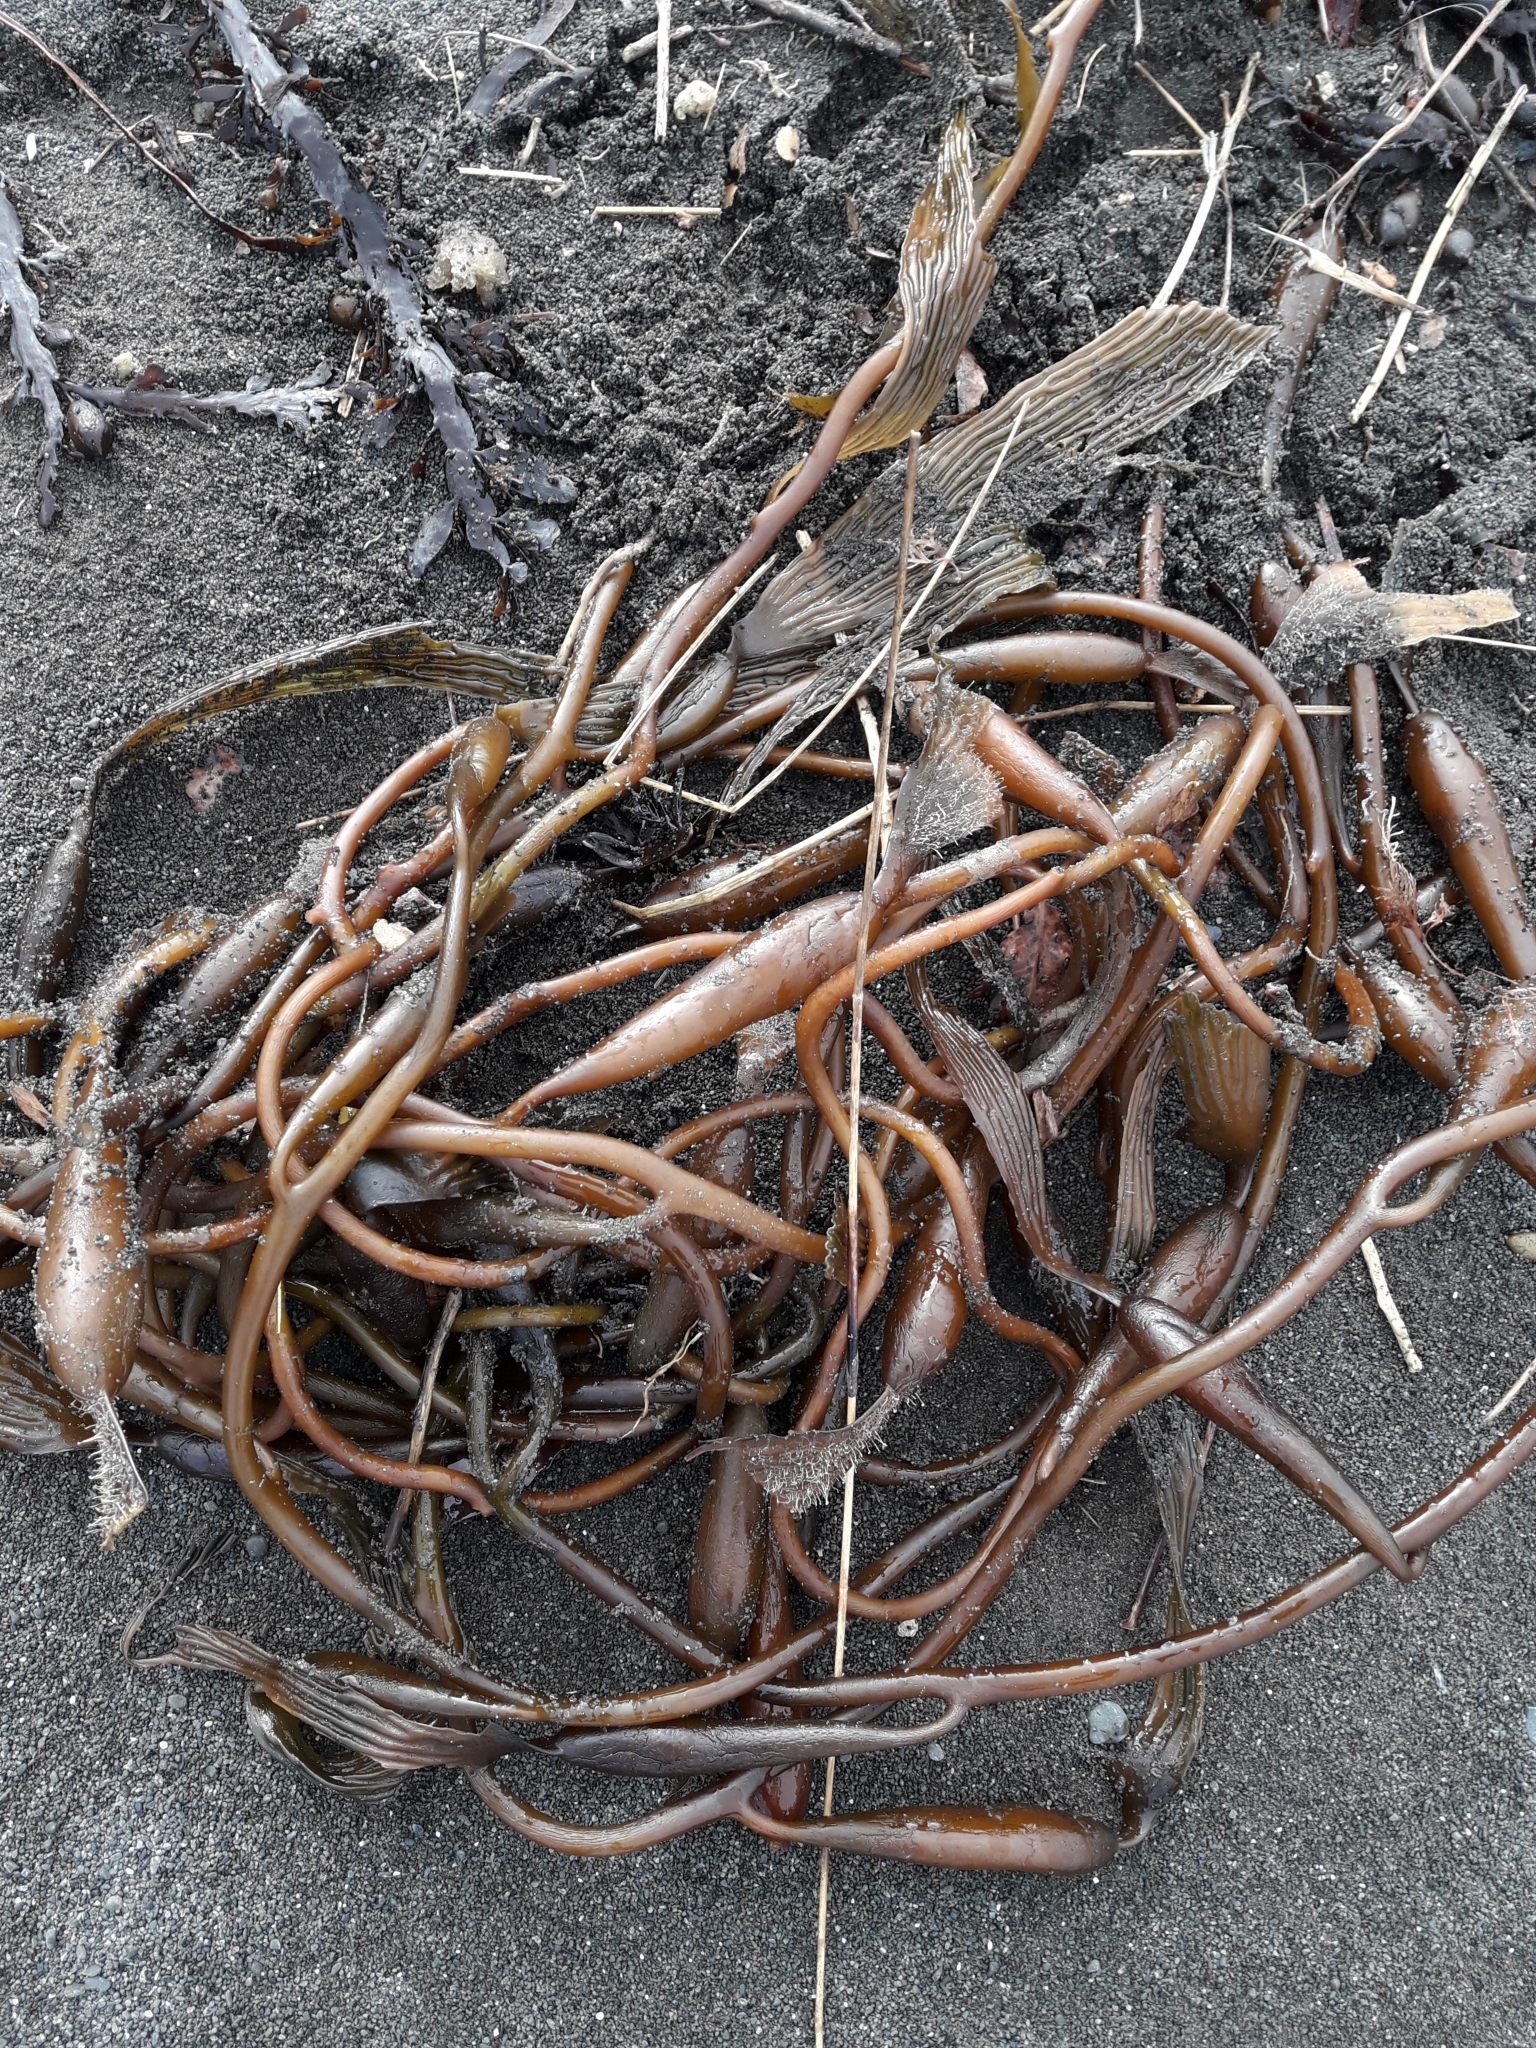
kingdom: Chromista
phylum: Ochrophyta
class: Phaeophyceae
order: Laminariales
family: Laminariaceae
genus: Macrocystis
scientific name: Macrocystis pyrifera
